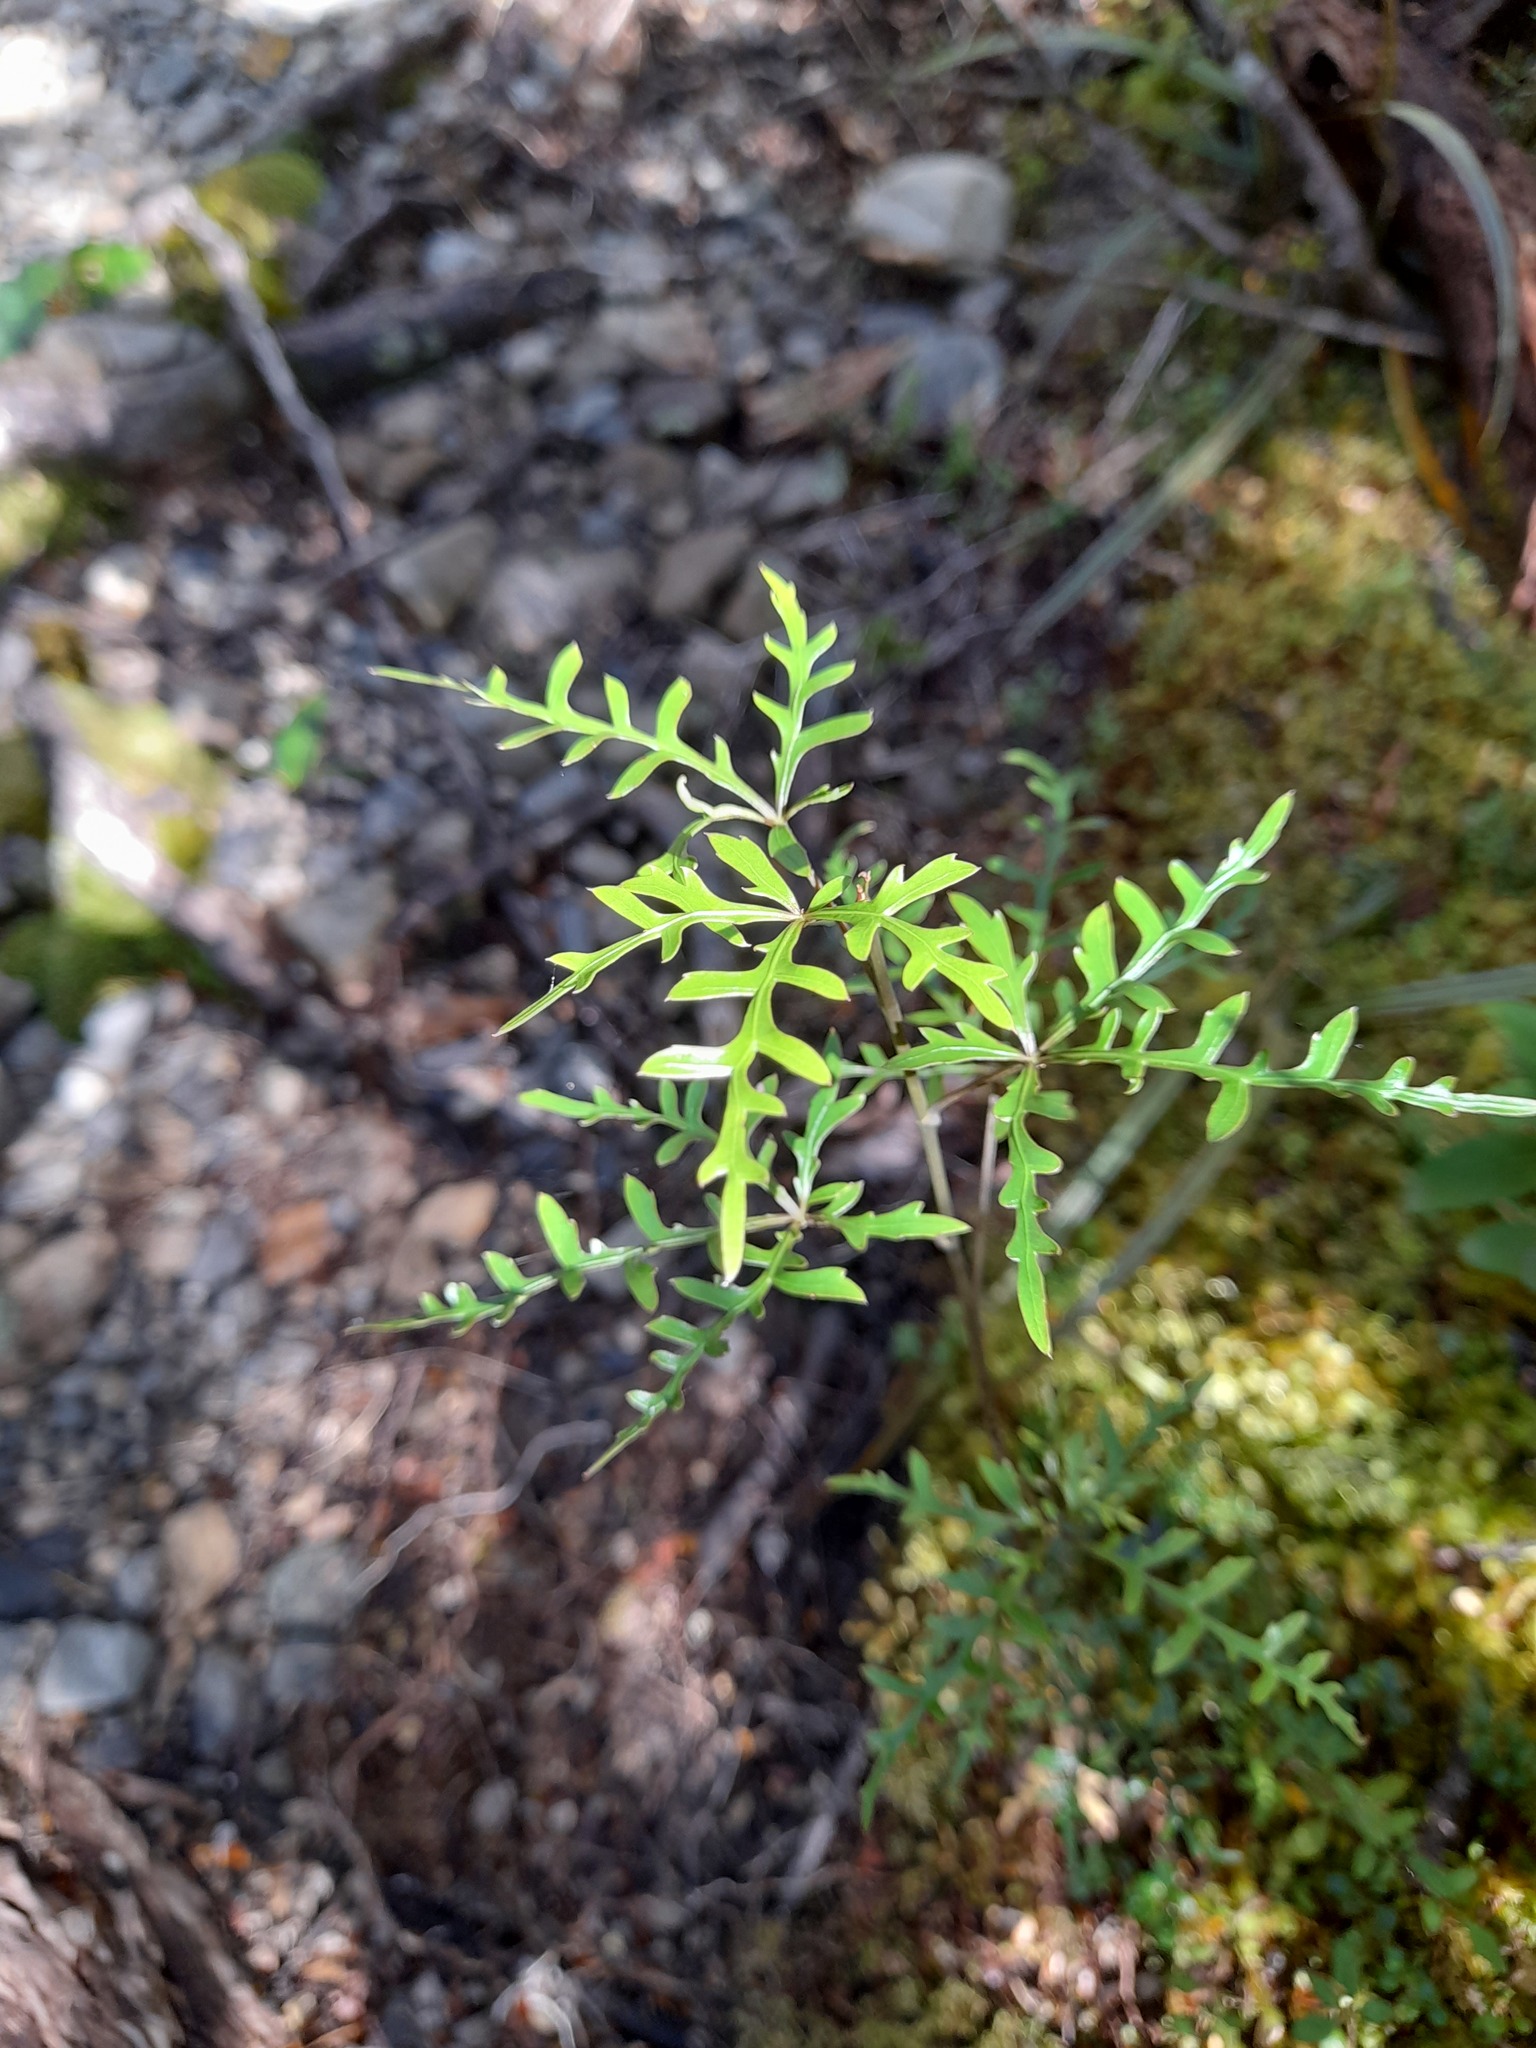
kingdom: Plantae
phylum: Tracheophyta
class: Magnoliopsida
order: Apiales
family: Araliaceae
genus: Raukaua
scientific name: Raukaua simplex
